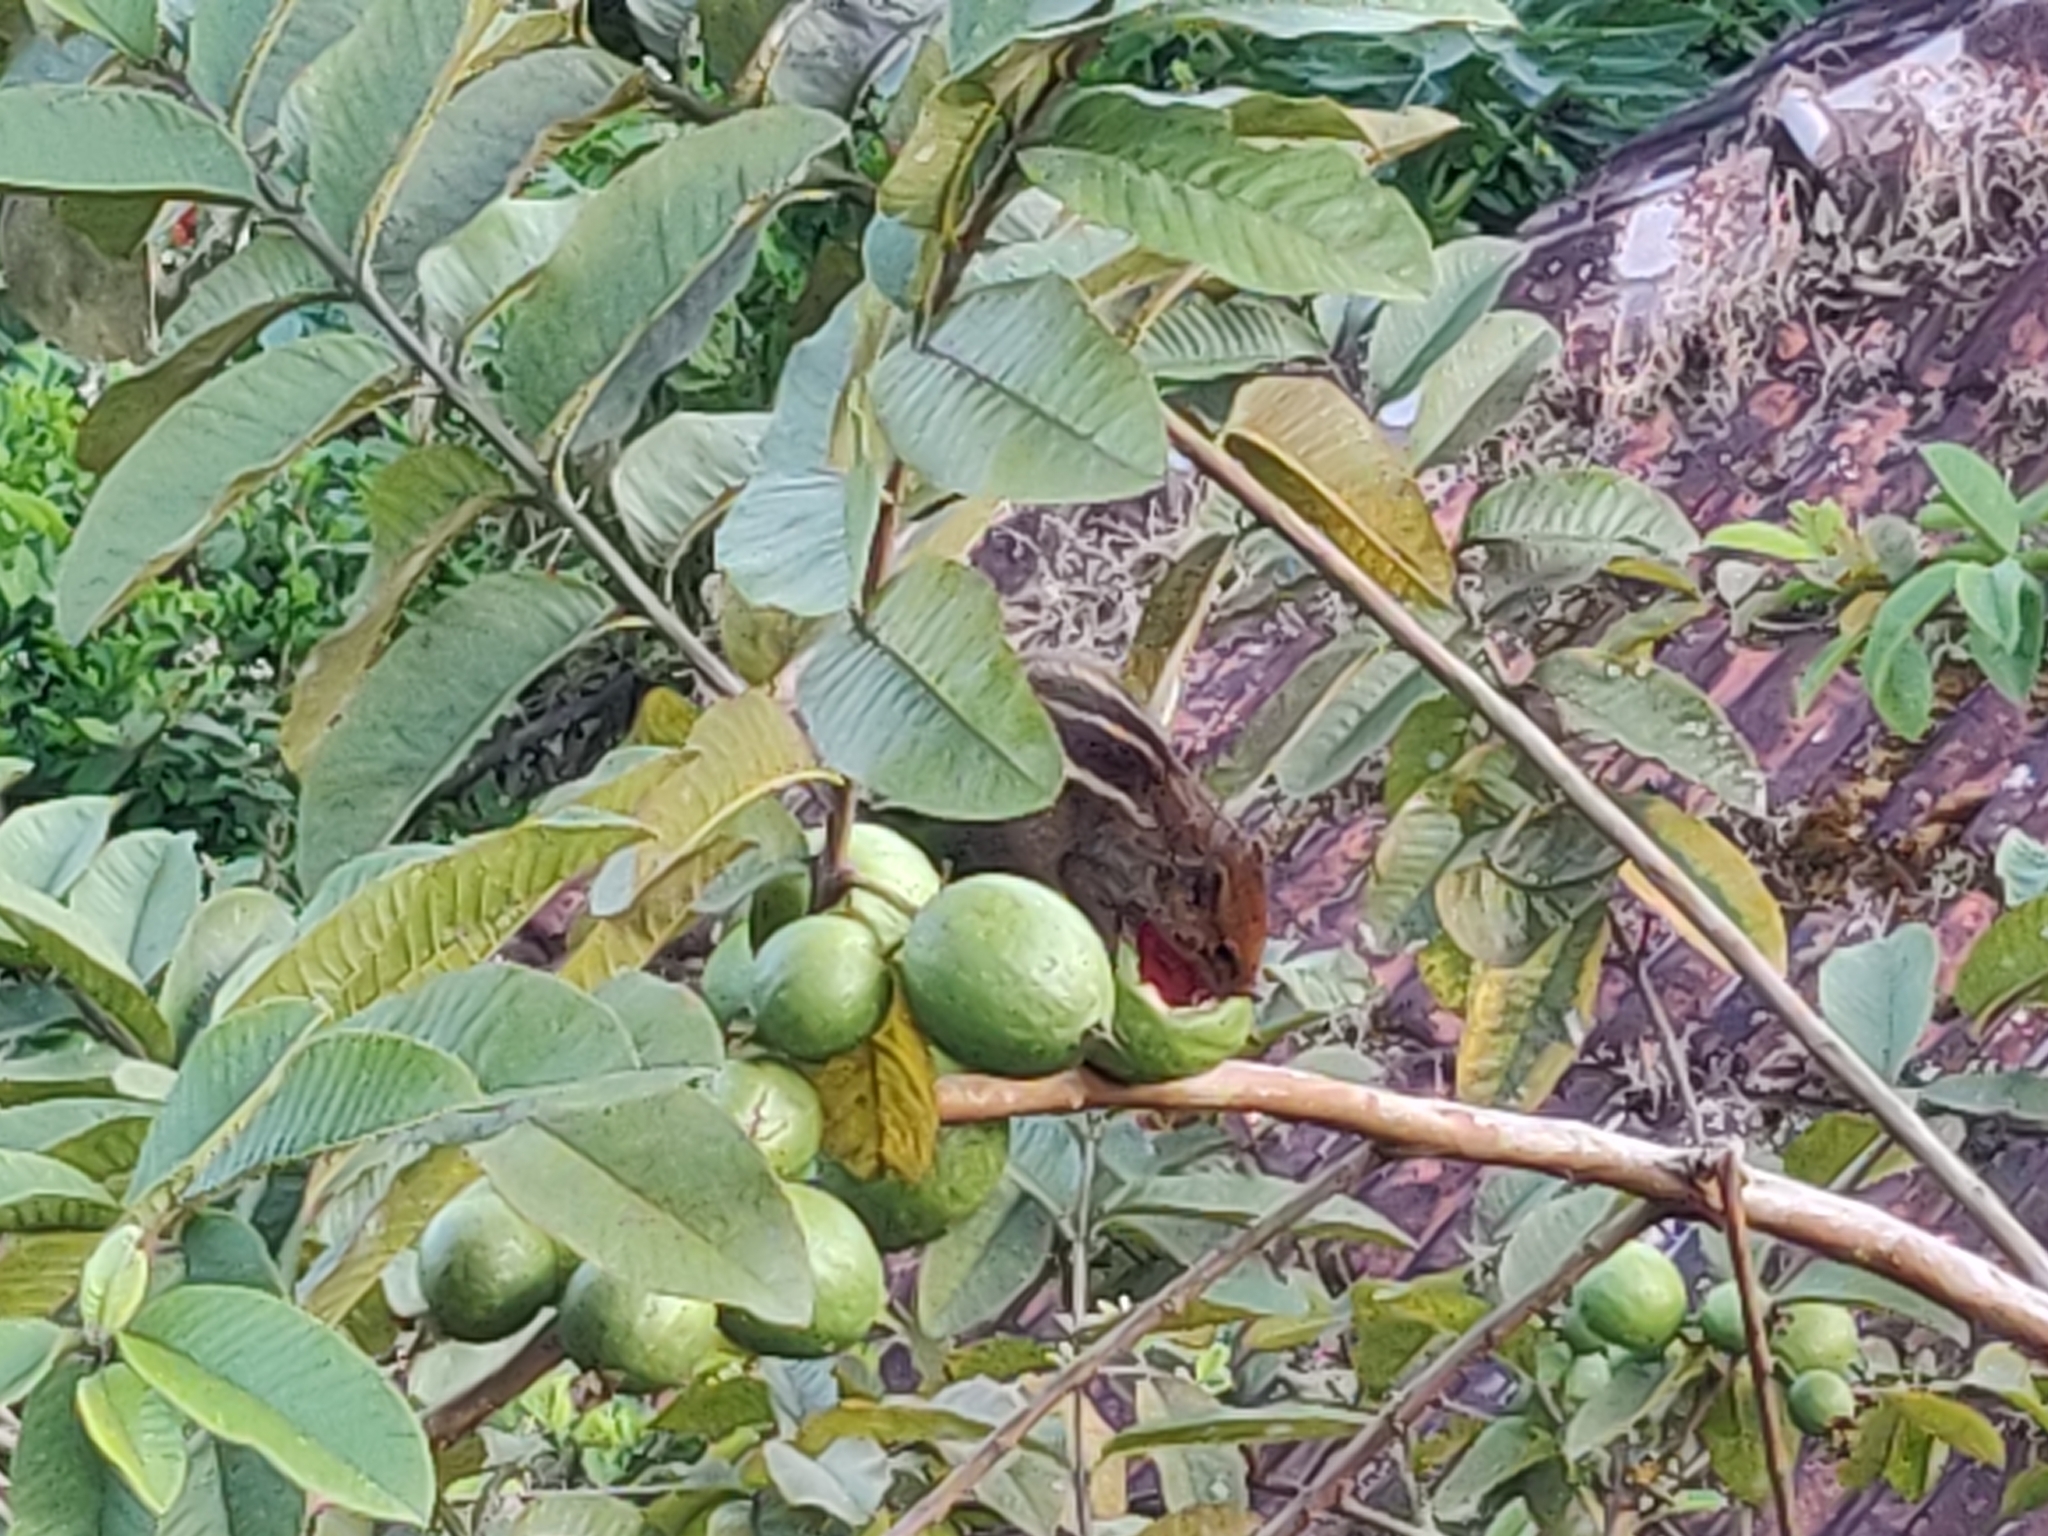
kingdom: Animalia
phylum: Chordata
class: Mammalia
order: Rodentia
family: Sciuridae
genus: Funambulus
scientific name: Funambulus tristriatus
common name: Jungle palm squirrel
